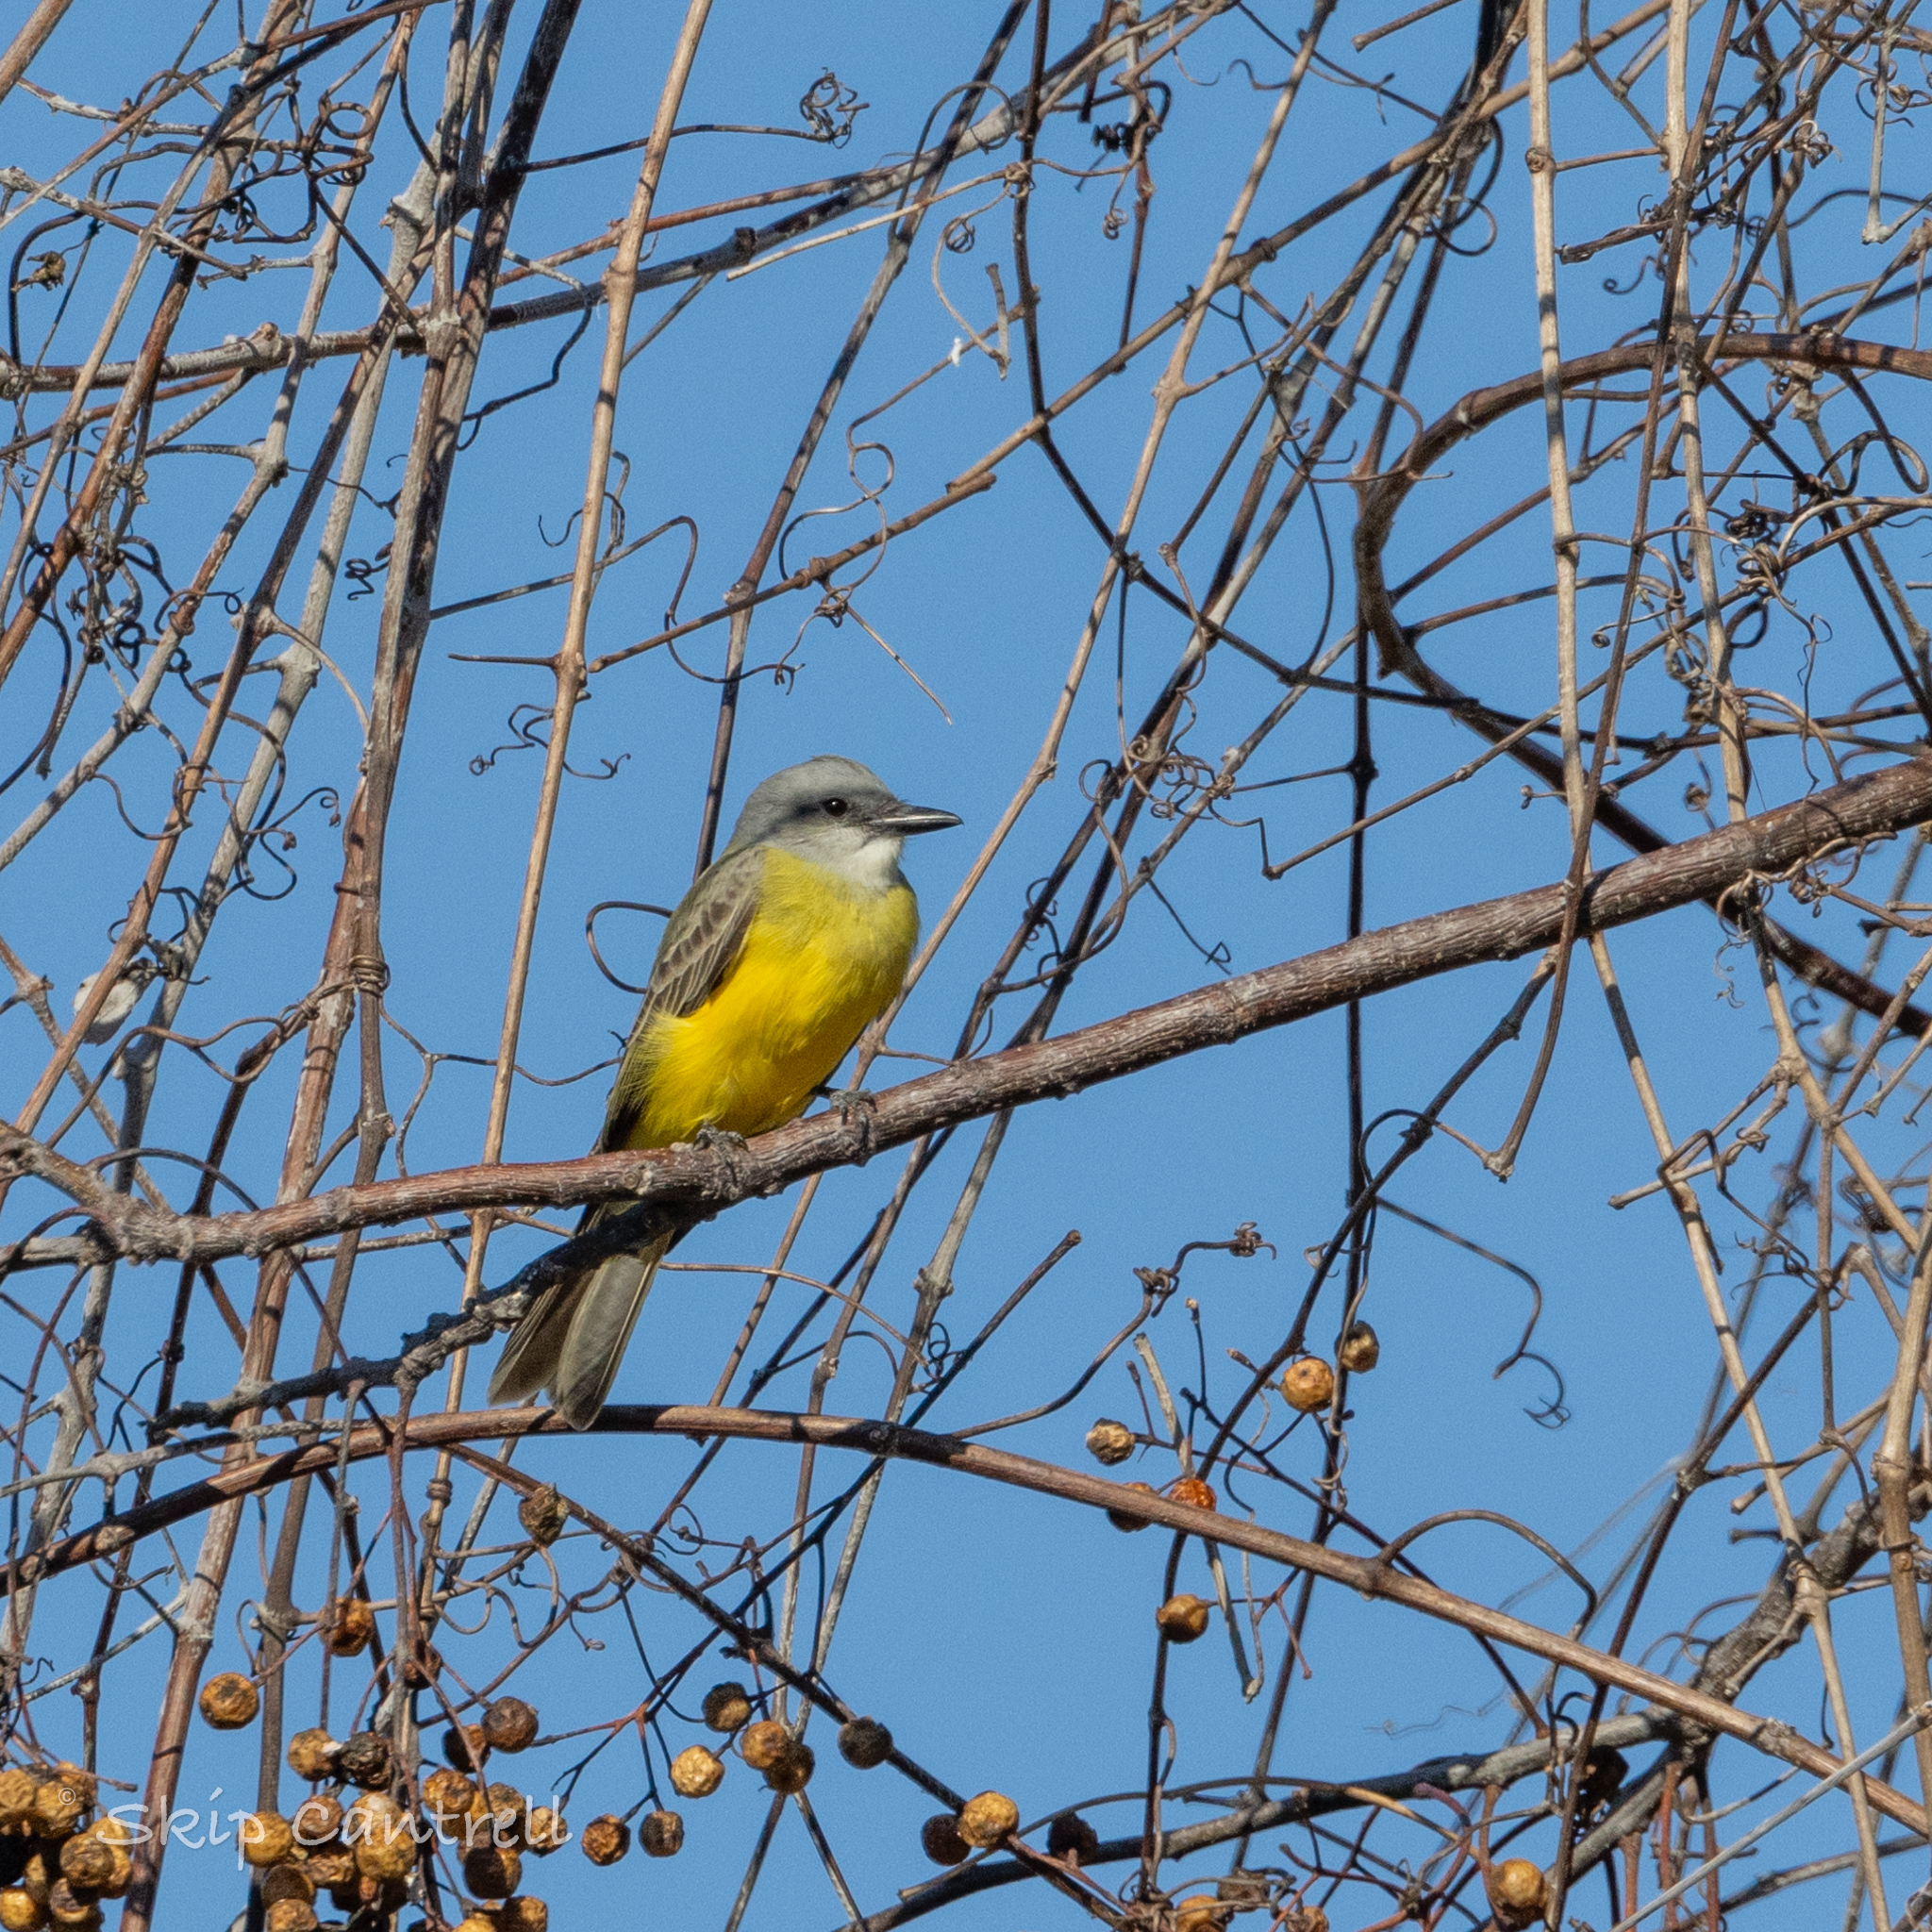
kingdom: Animalia
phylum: Chordata
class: Aves
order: Passeriformes
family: Tyrannidae
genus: Tyrannus
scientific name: Tyrannus couchii
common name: Couch's kingbird
